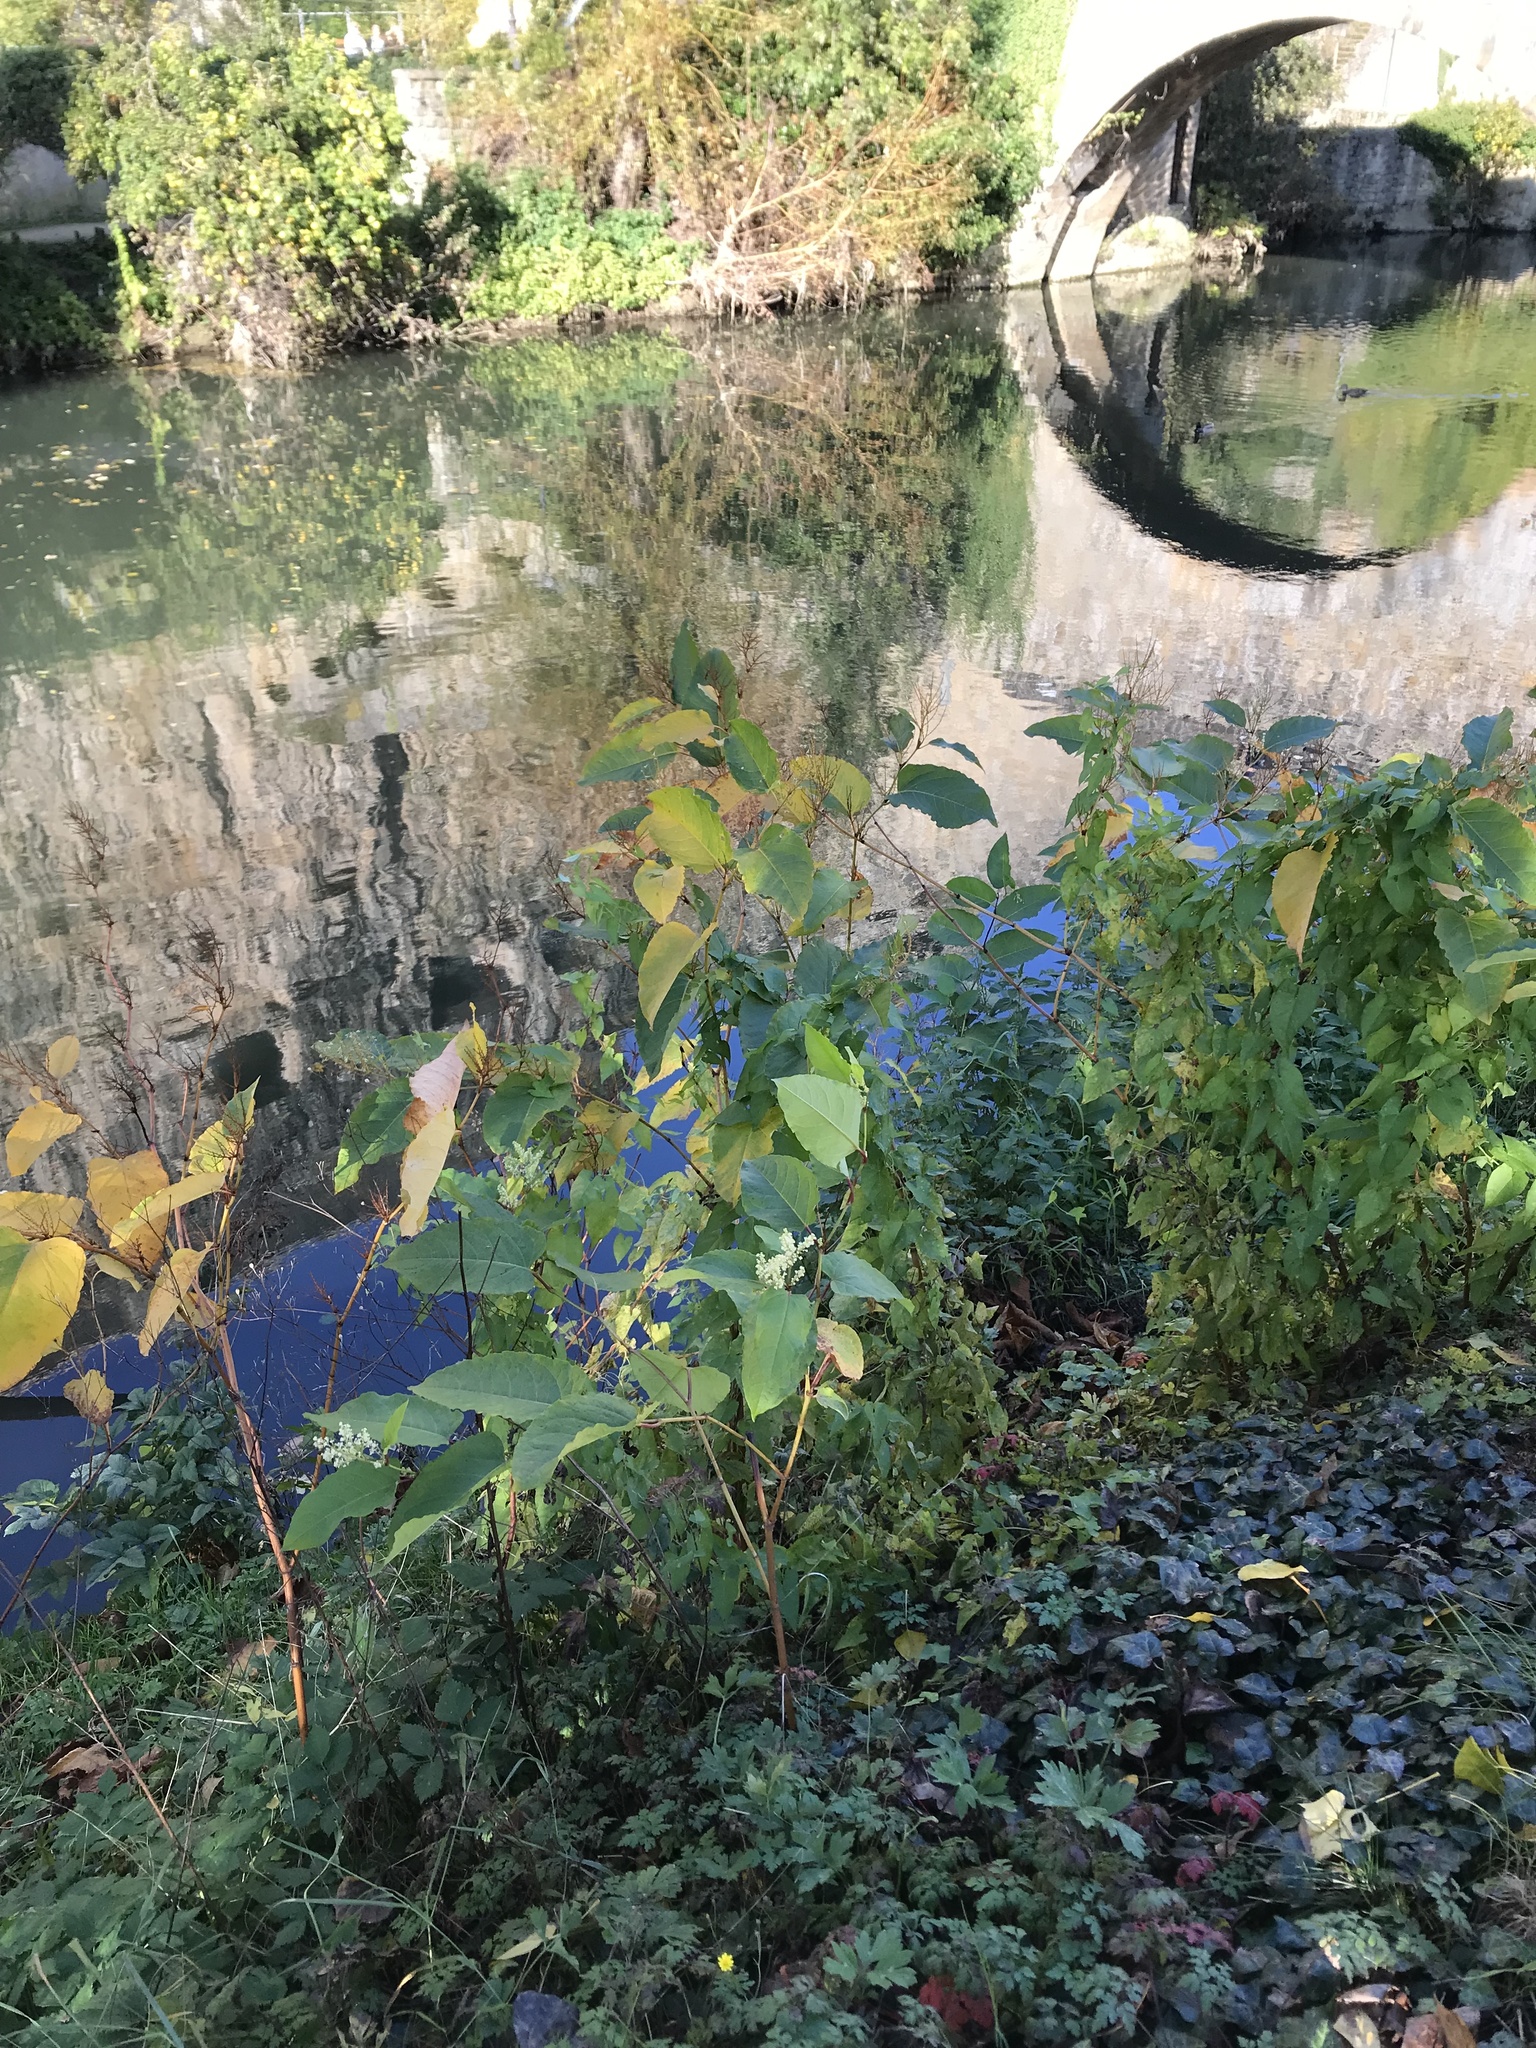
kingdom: Plantae
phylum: Tracheophyta
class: Magnoliopsida
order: Caryophyllales
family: Polygonaceae
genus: Reynoutria
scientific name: Reynoutria sachalinensis
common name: Giant knotweed
